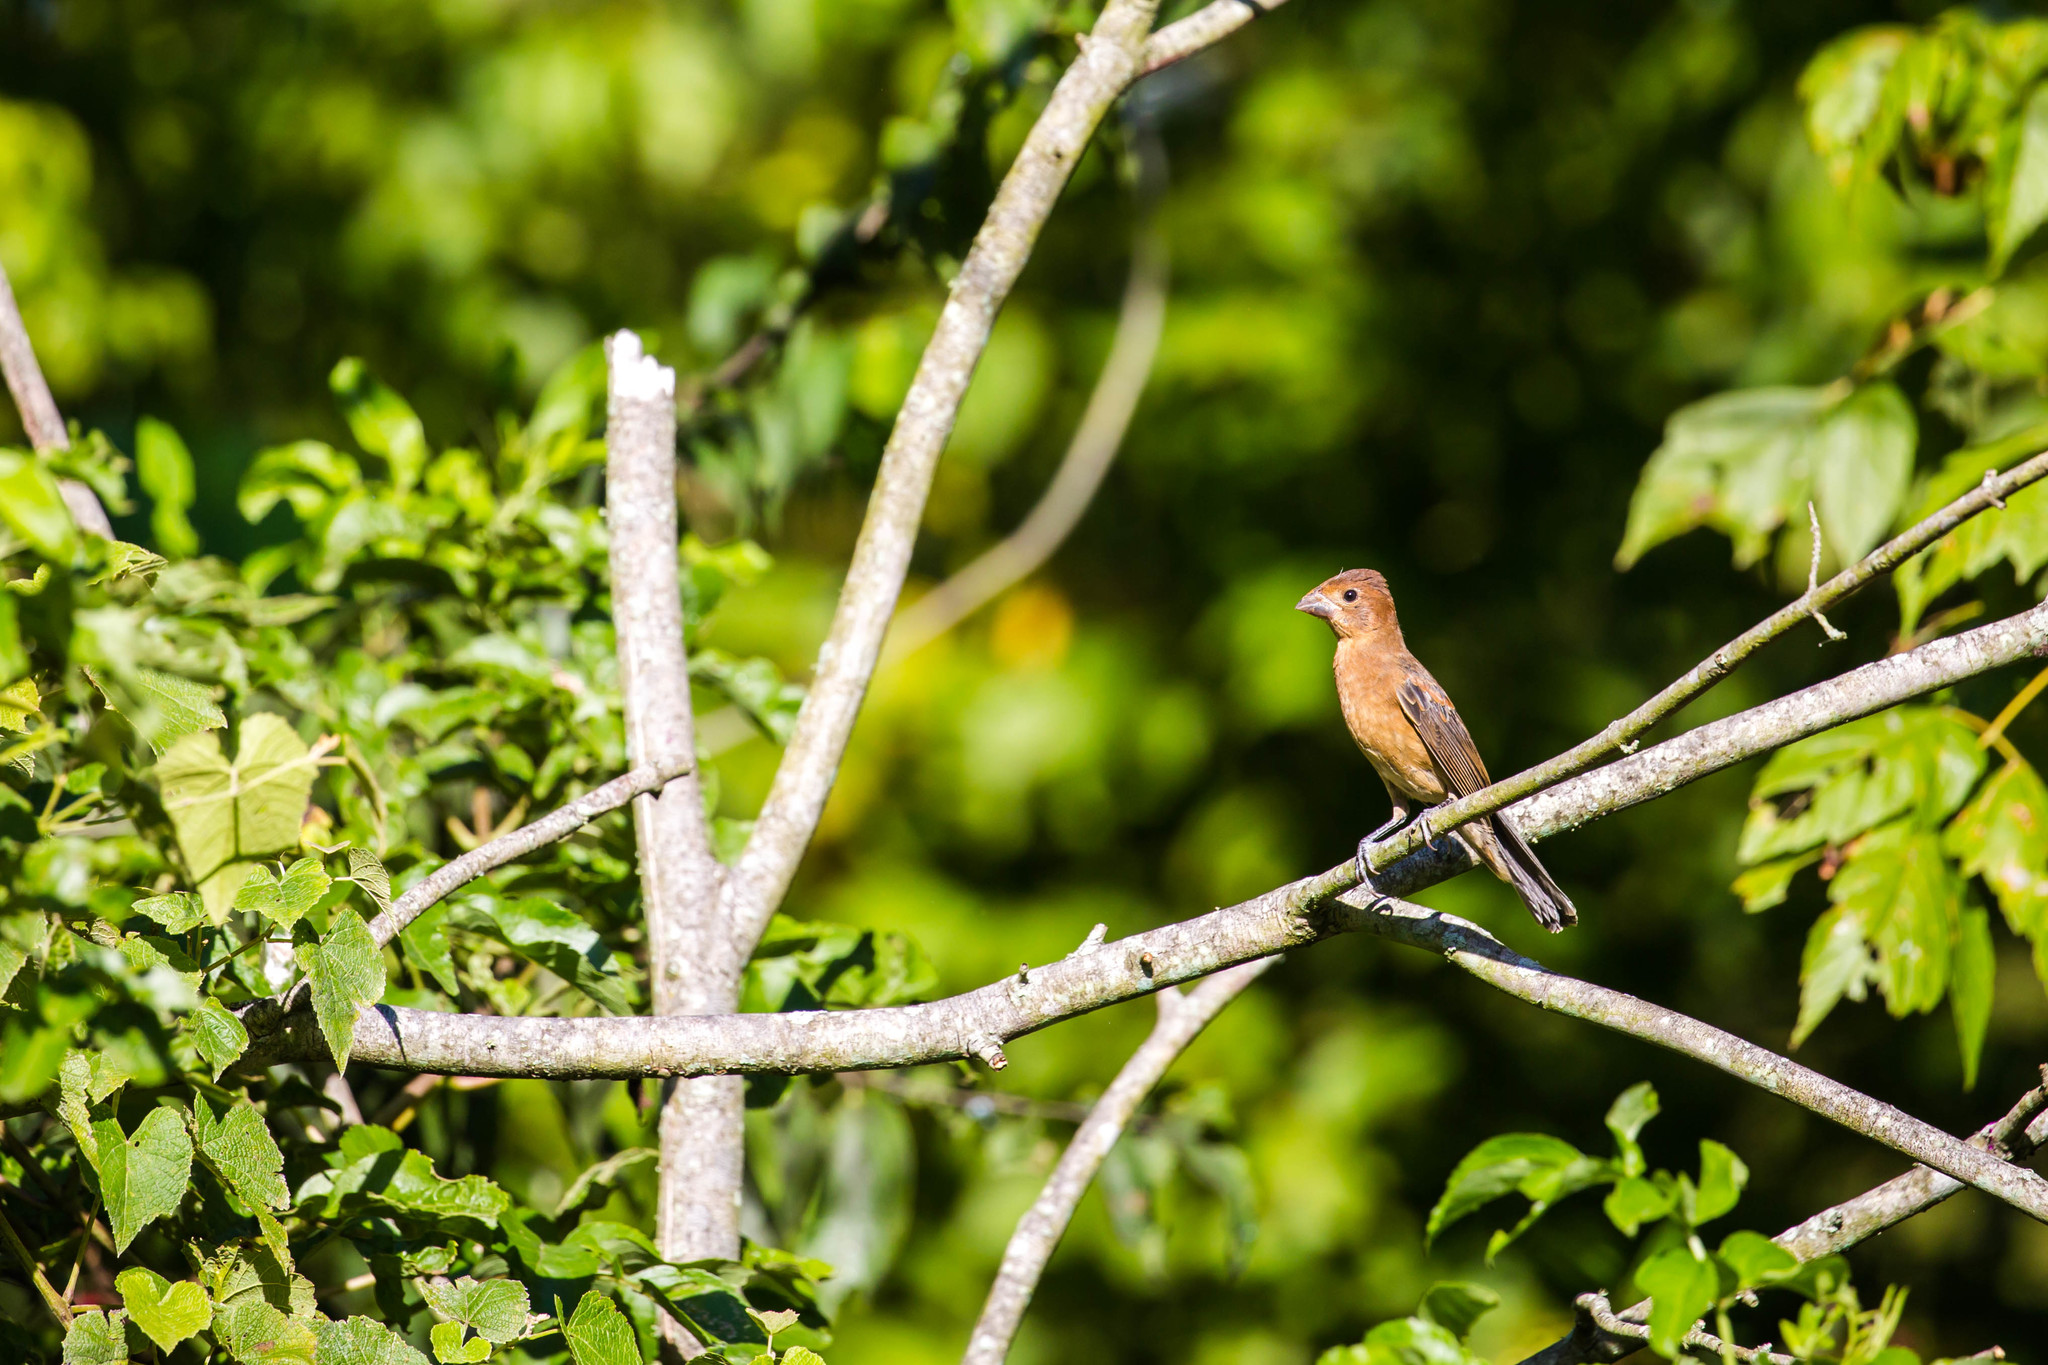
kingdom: Animalia
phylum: Chordata
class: Aves
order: Passeriformes
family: Cardinalidae
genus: Passerina
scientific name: Passerina caerulea
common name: Blue grosbeak
